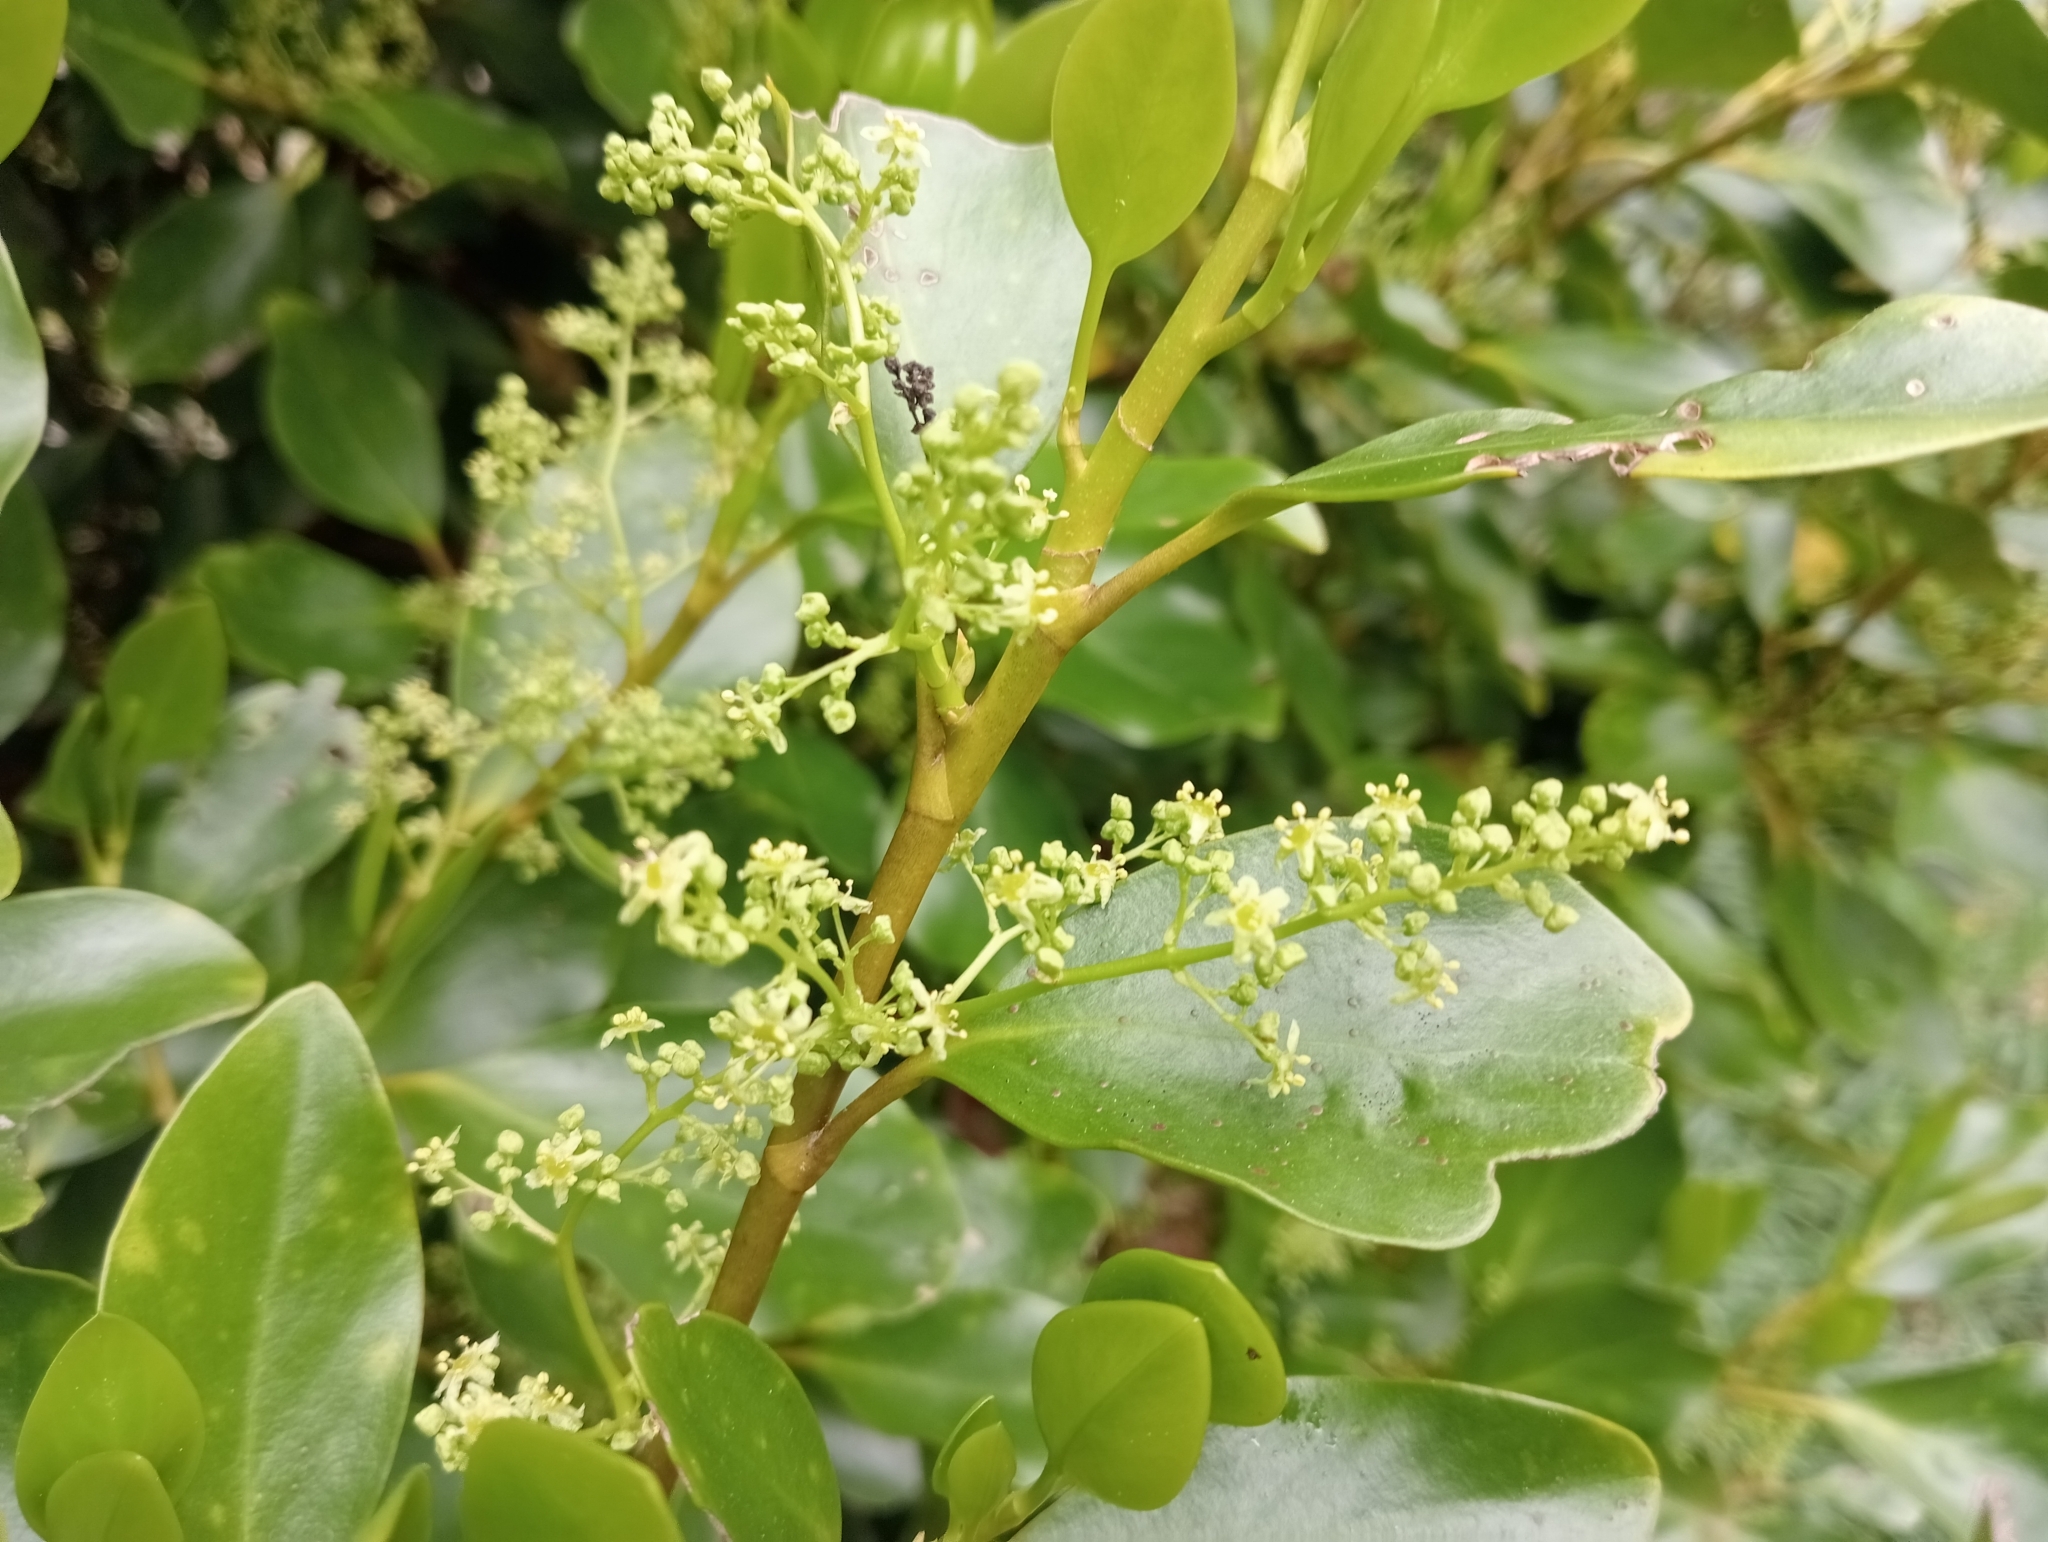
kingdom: Plantae
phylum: Tracheophyta
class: Magnoliopsida
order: Apiales
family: Griseliniaceae
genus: Griselinia
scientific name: Griselinia littoralis
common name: New zealand broadleaf
